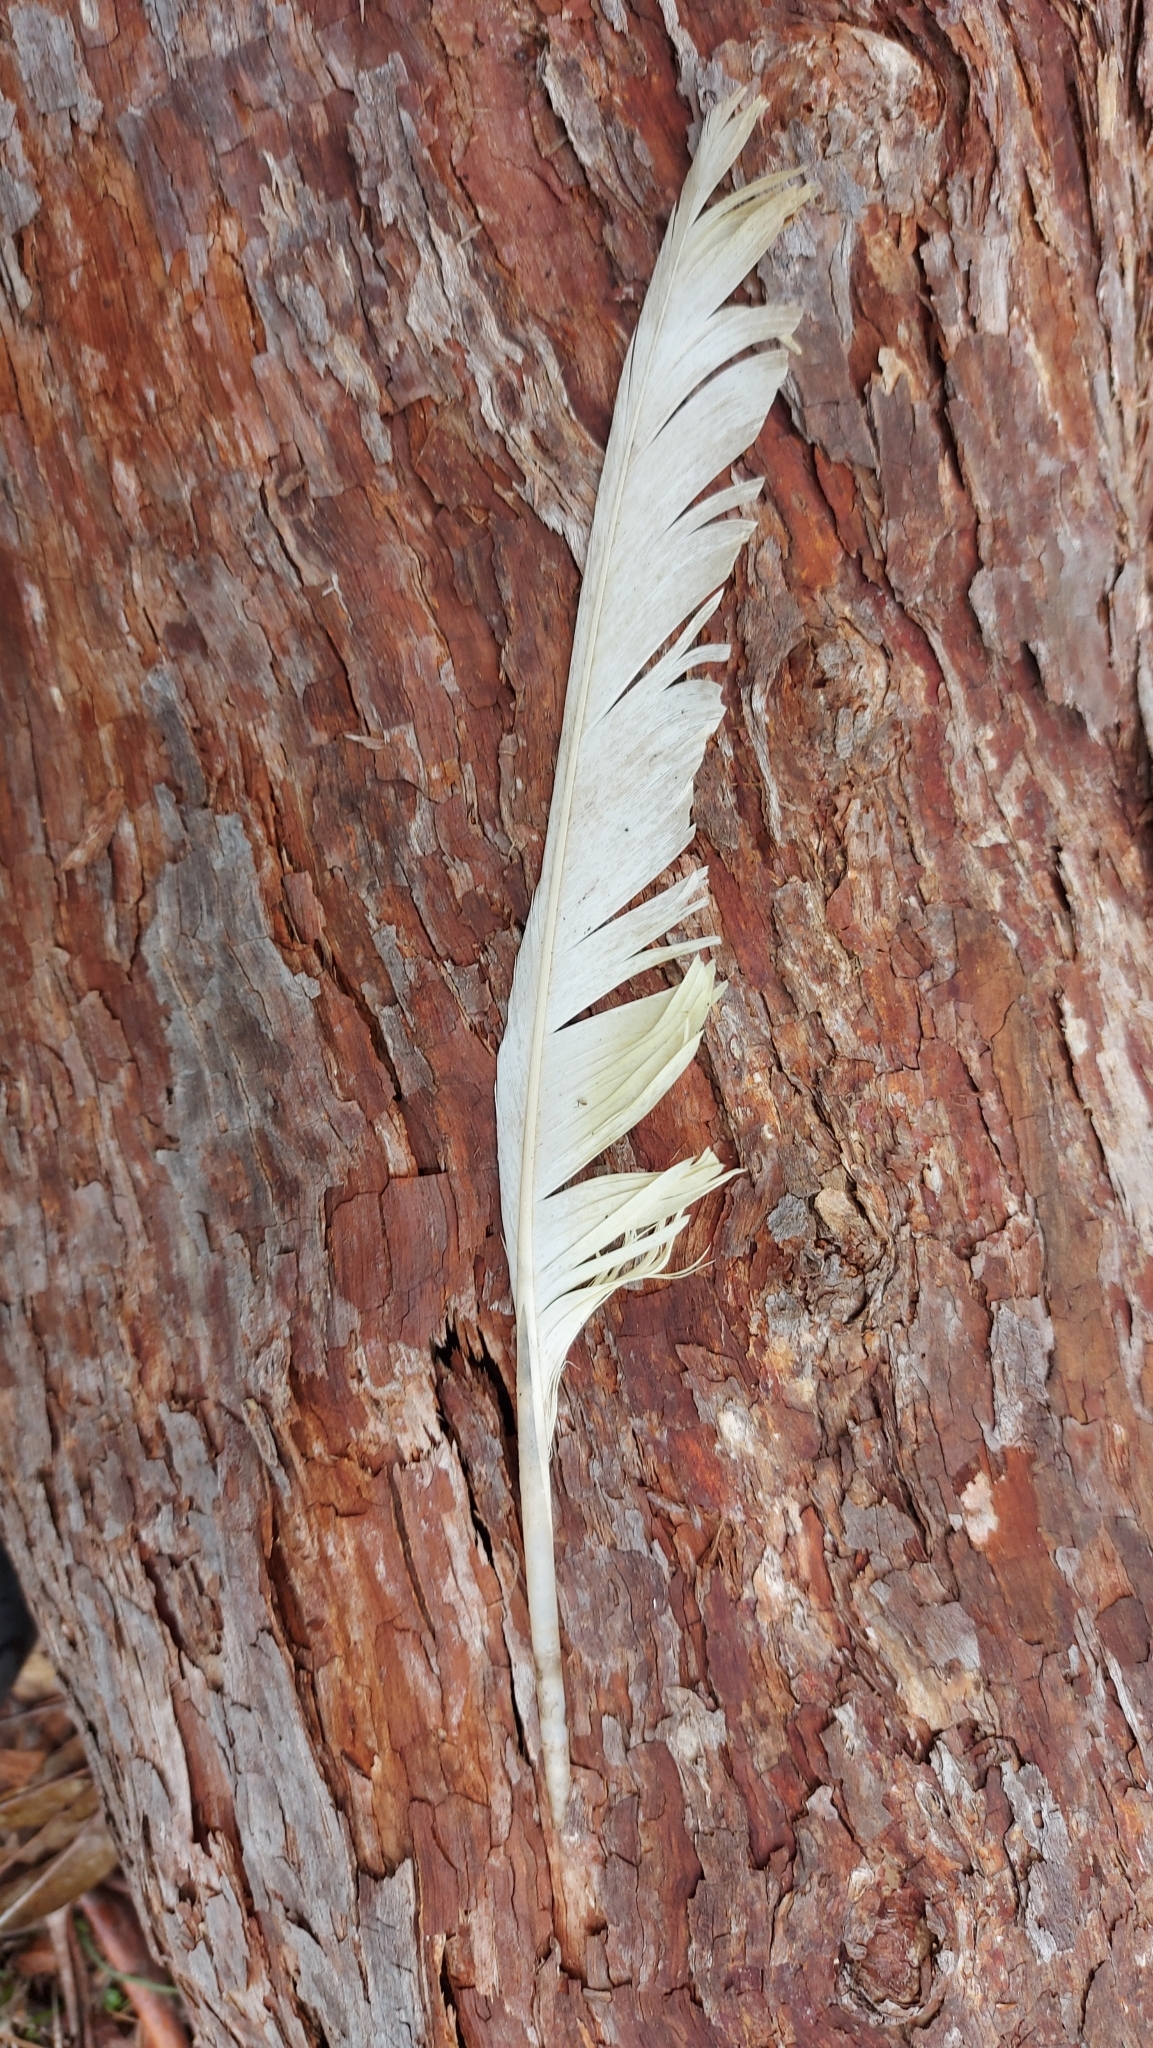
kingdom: Animalia
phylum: Chordata
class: Aves
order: Psittaciformes
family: Psittacidae
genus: Cacatua
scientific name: Cacatua galerita
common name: Sulphur-crested cockatoo
